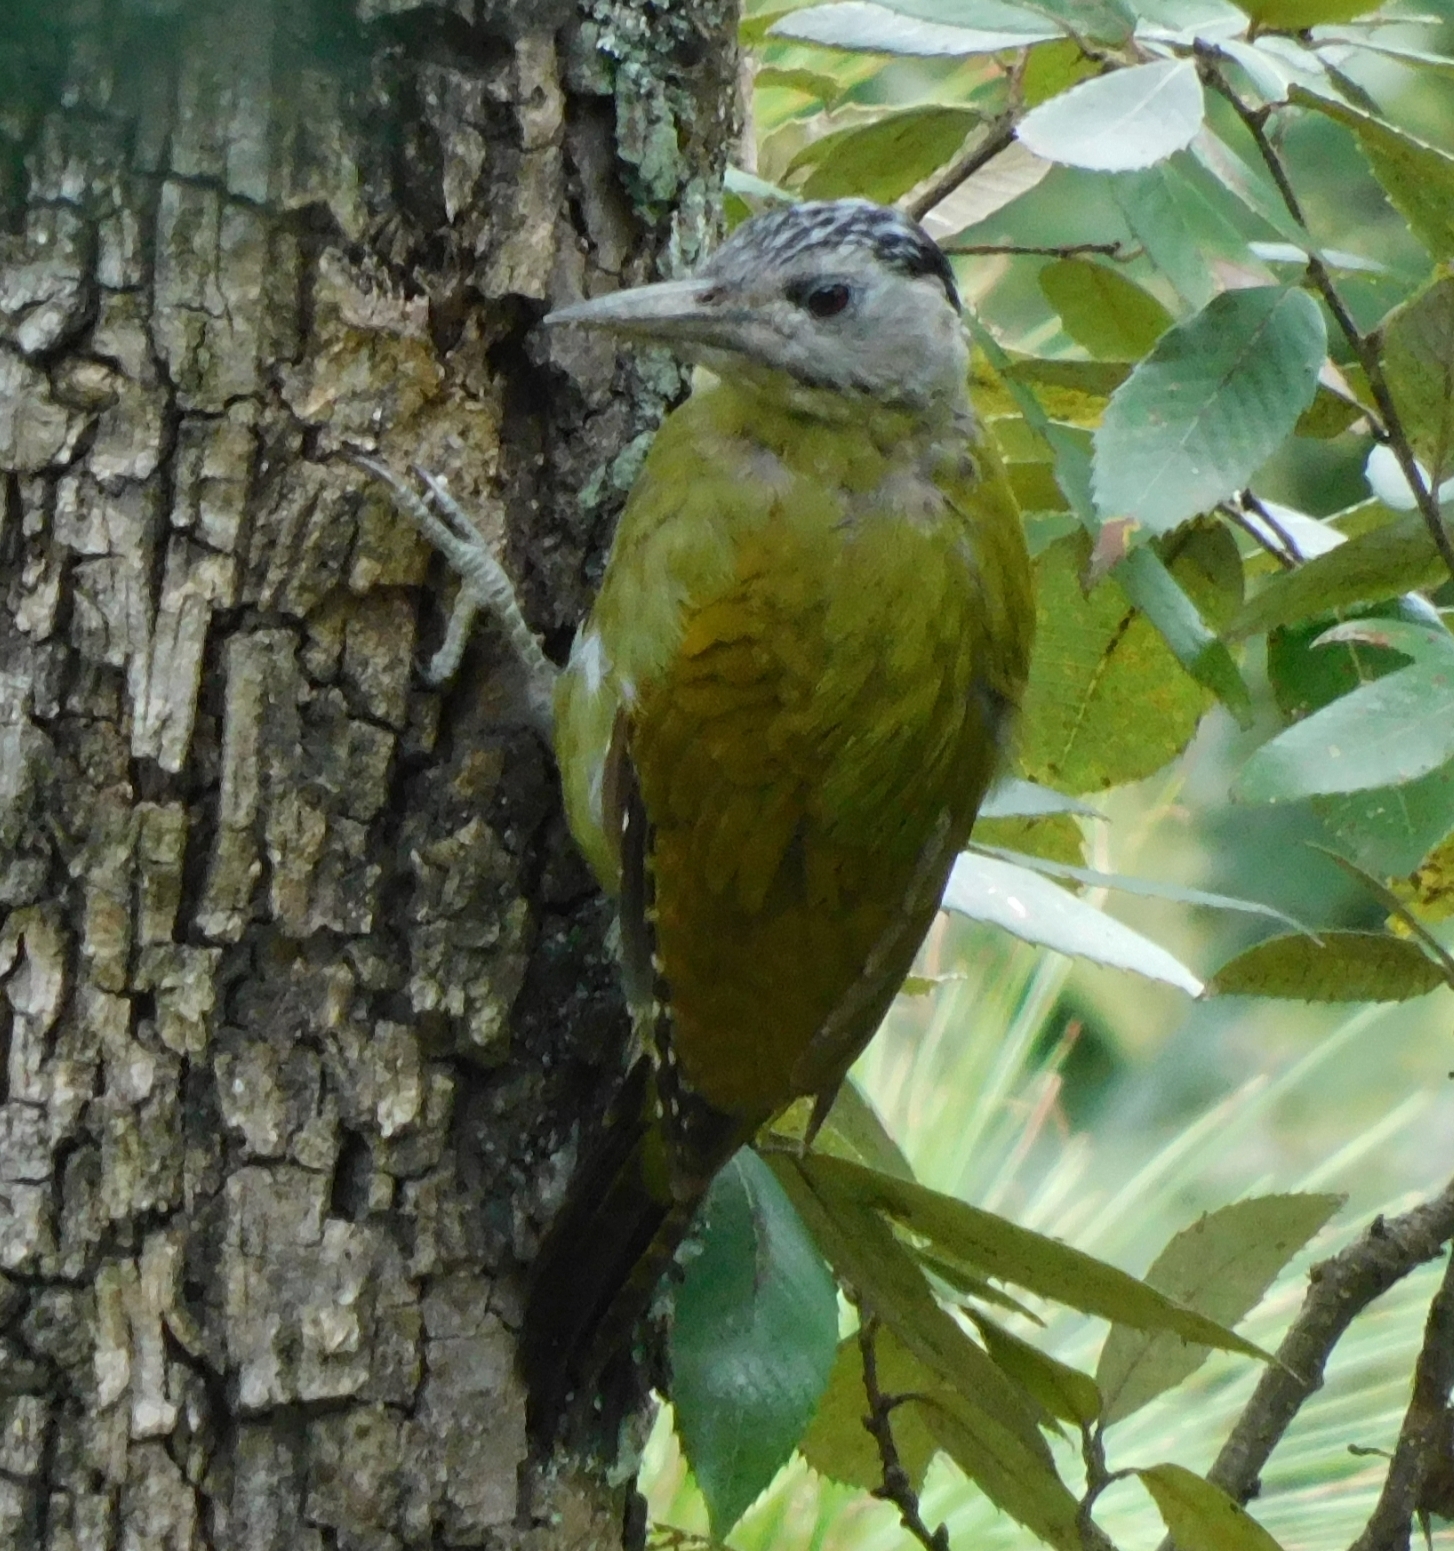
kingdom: Animalia
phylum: Chordata
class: Aves
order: Piciformes
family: Picidae
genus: Picus
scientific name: Picus canus
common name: Grey-headed woodpecker
